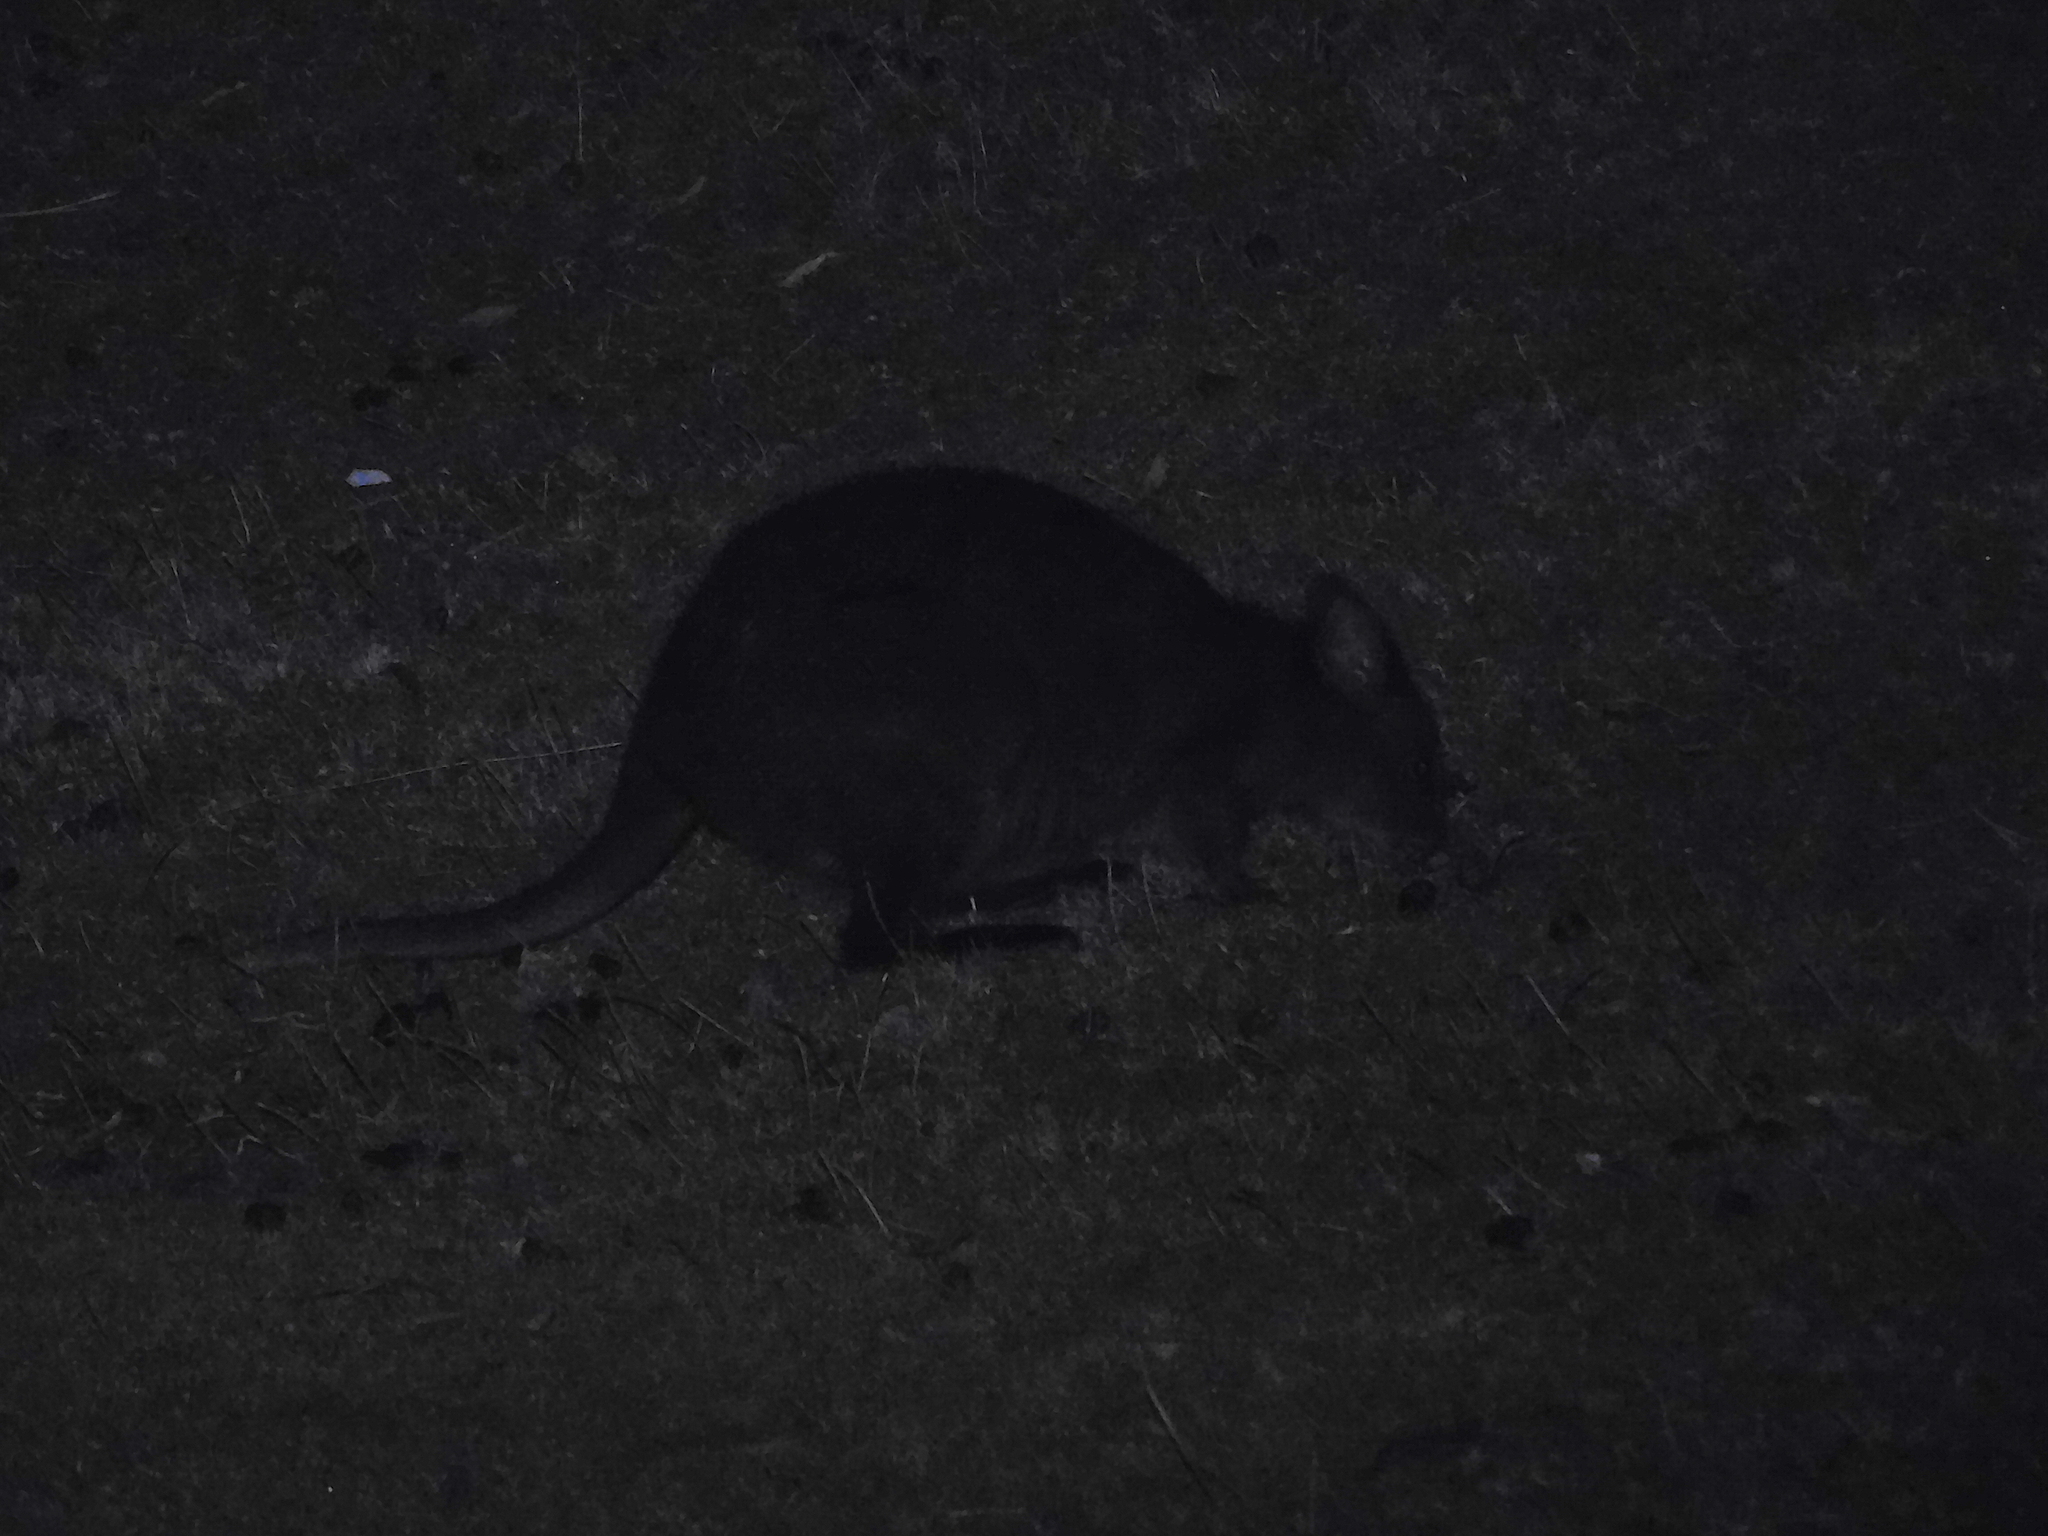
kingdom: Animalia
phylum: Chordata
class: Mammalia
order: Diprotodontia
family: Macropodidae
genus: Thylogale
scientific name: Thylogale billardierii
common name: Tasmanian pademelon
